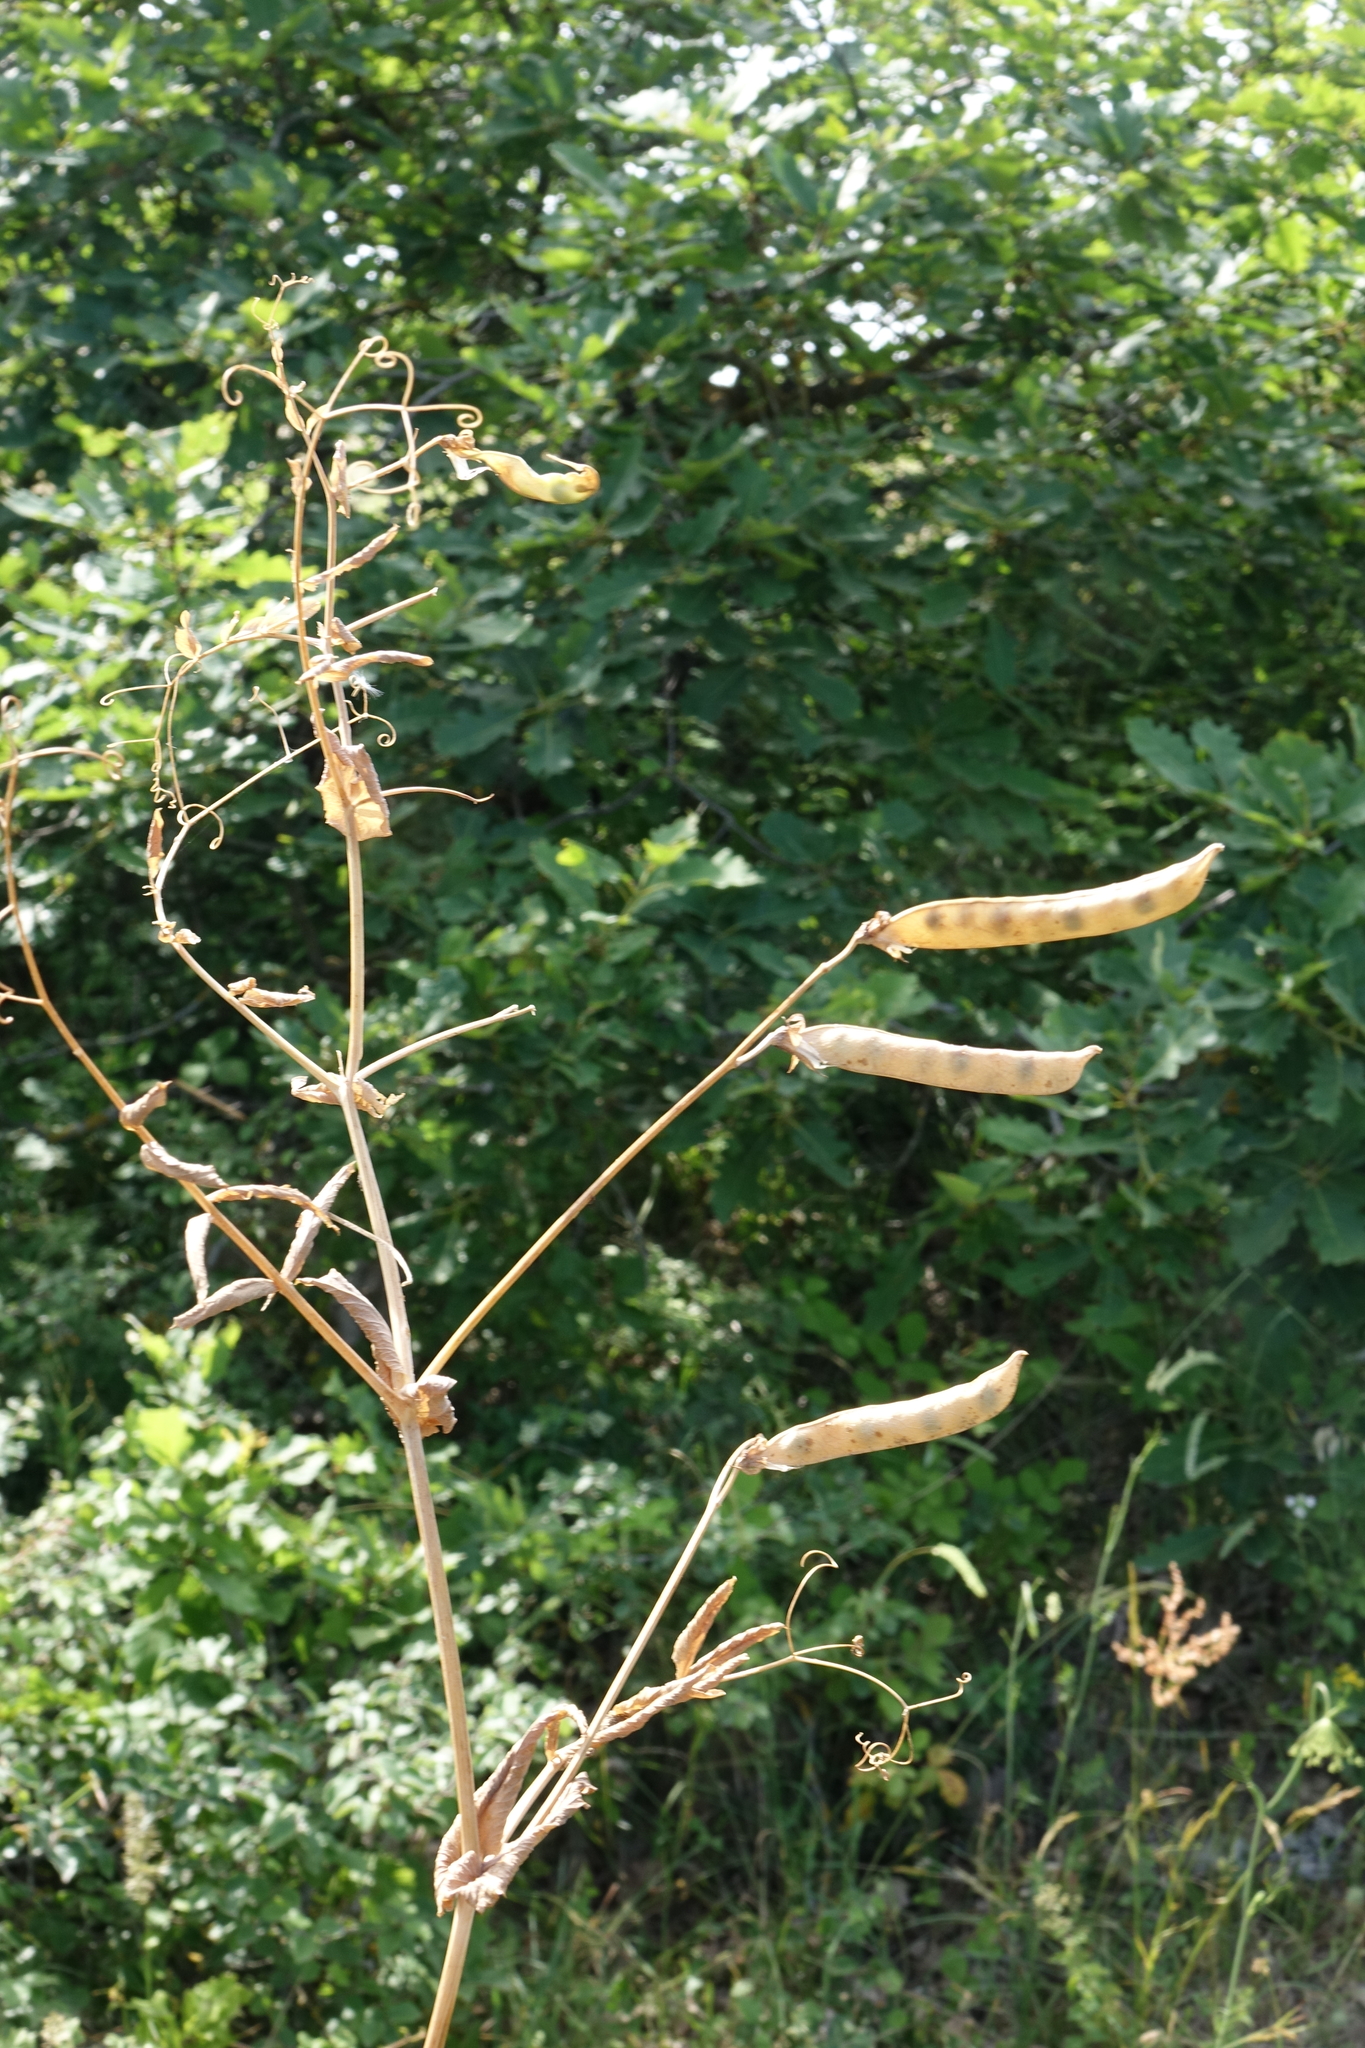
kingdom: Plantae
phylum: Tracheophyta
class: Magnoliopsida
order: Fabales
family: Fabaceae
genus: Lathyrus
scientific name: Lathyrus oleraceus
